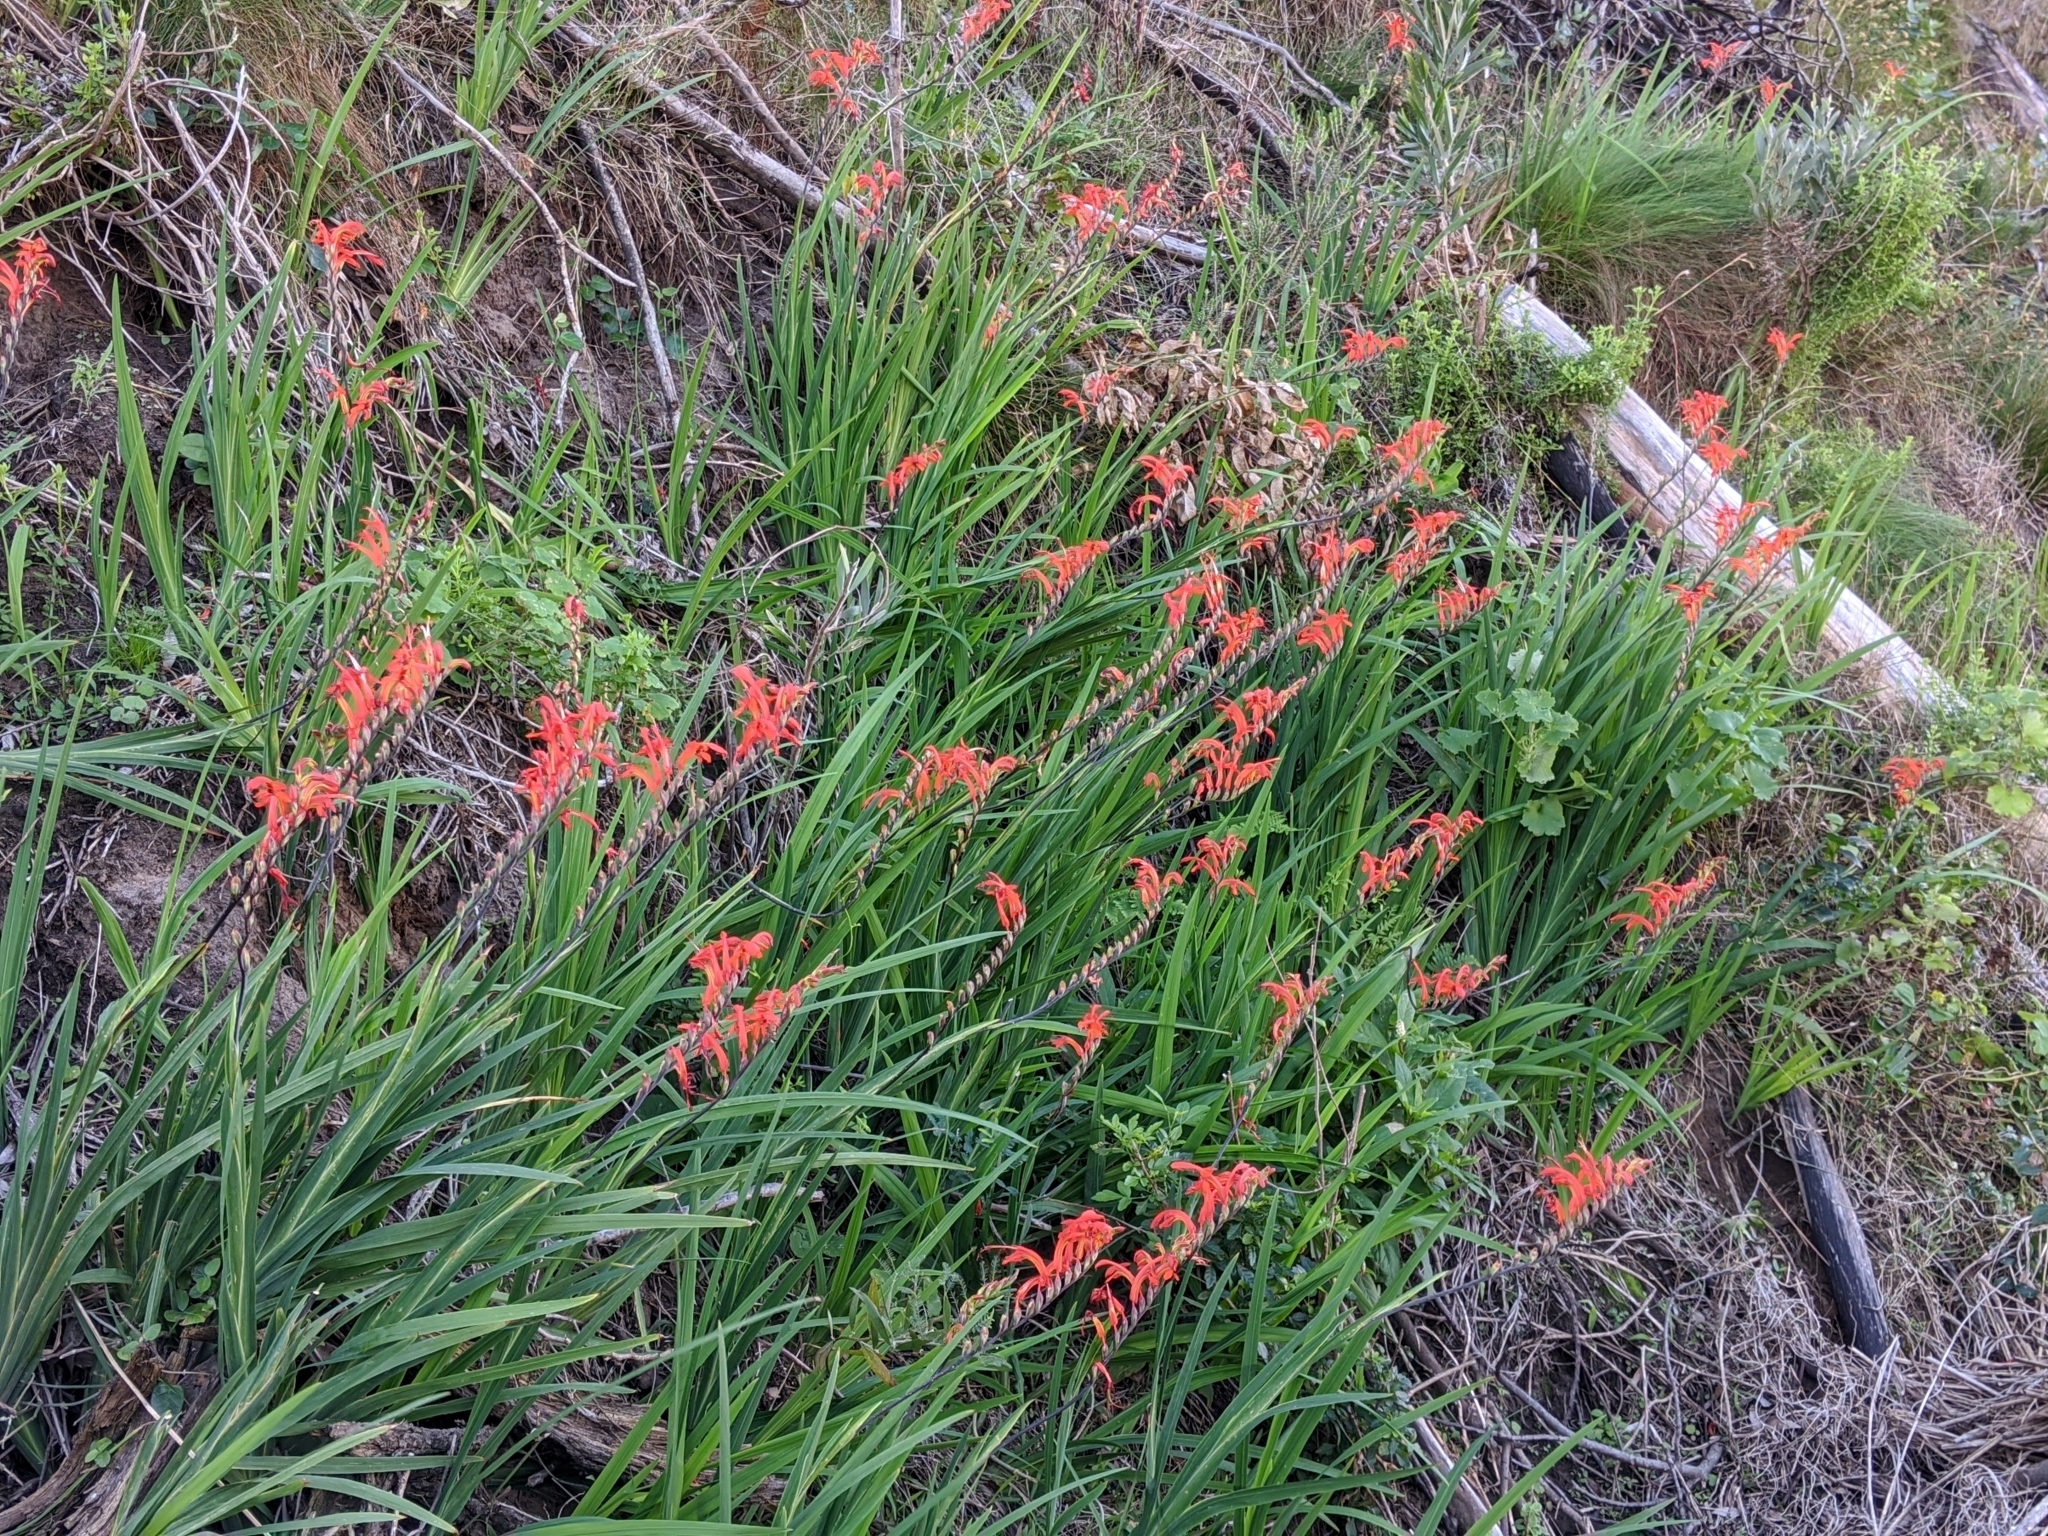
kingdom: Plantae
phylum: Tracheophyta
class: Liliopsida
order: Asparagales
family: Iridaceae
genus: Chasmanthe
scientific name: Chasmanthe aethiopica
